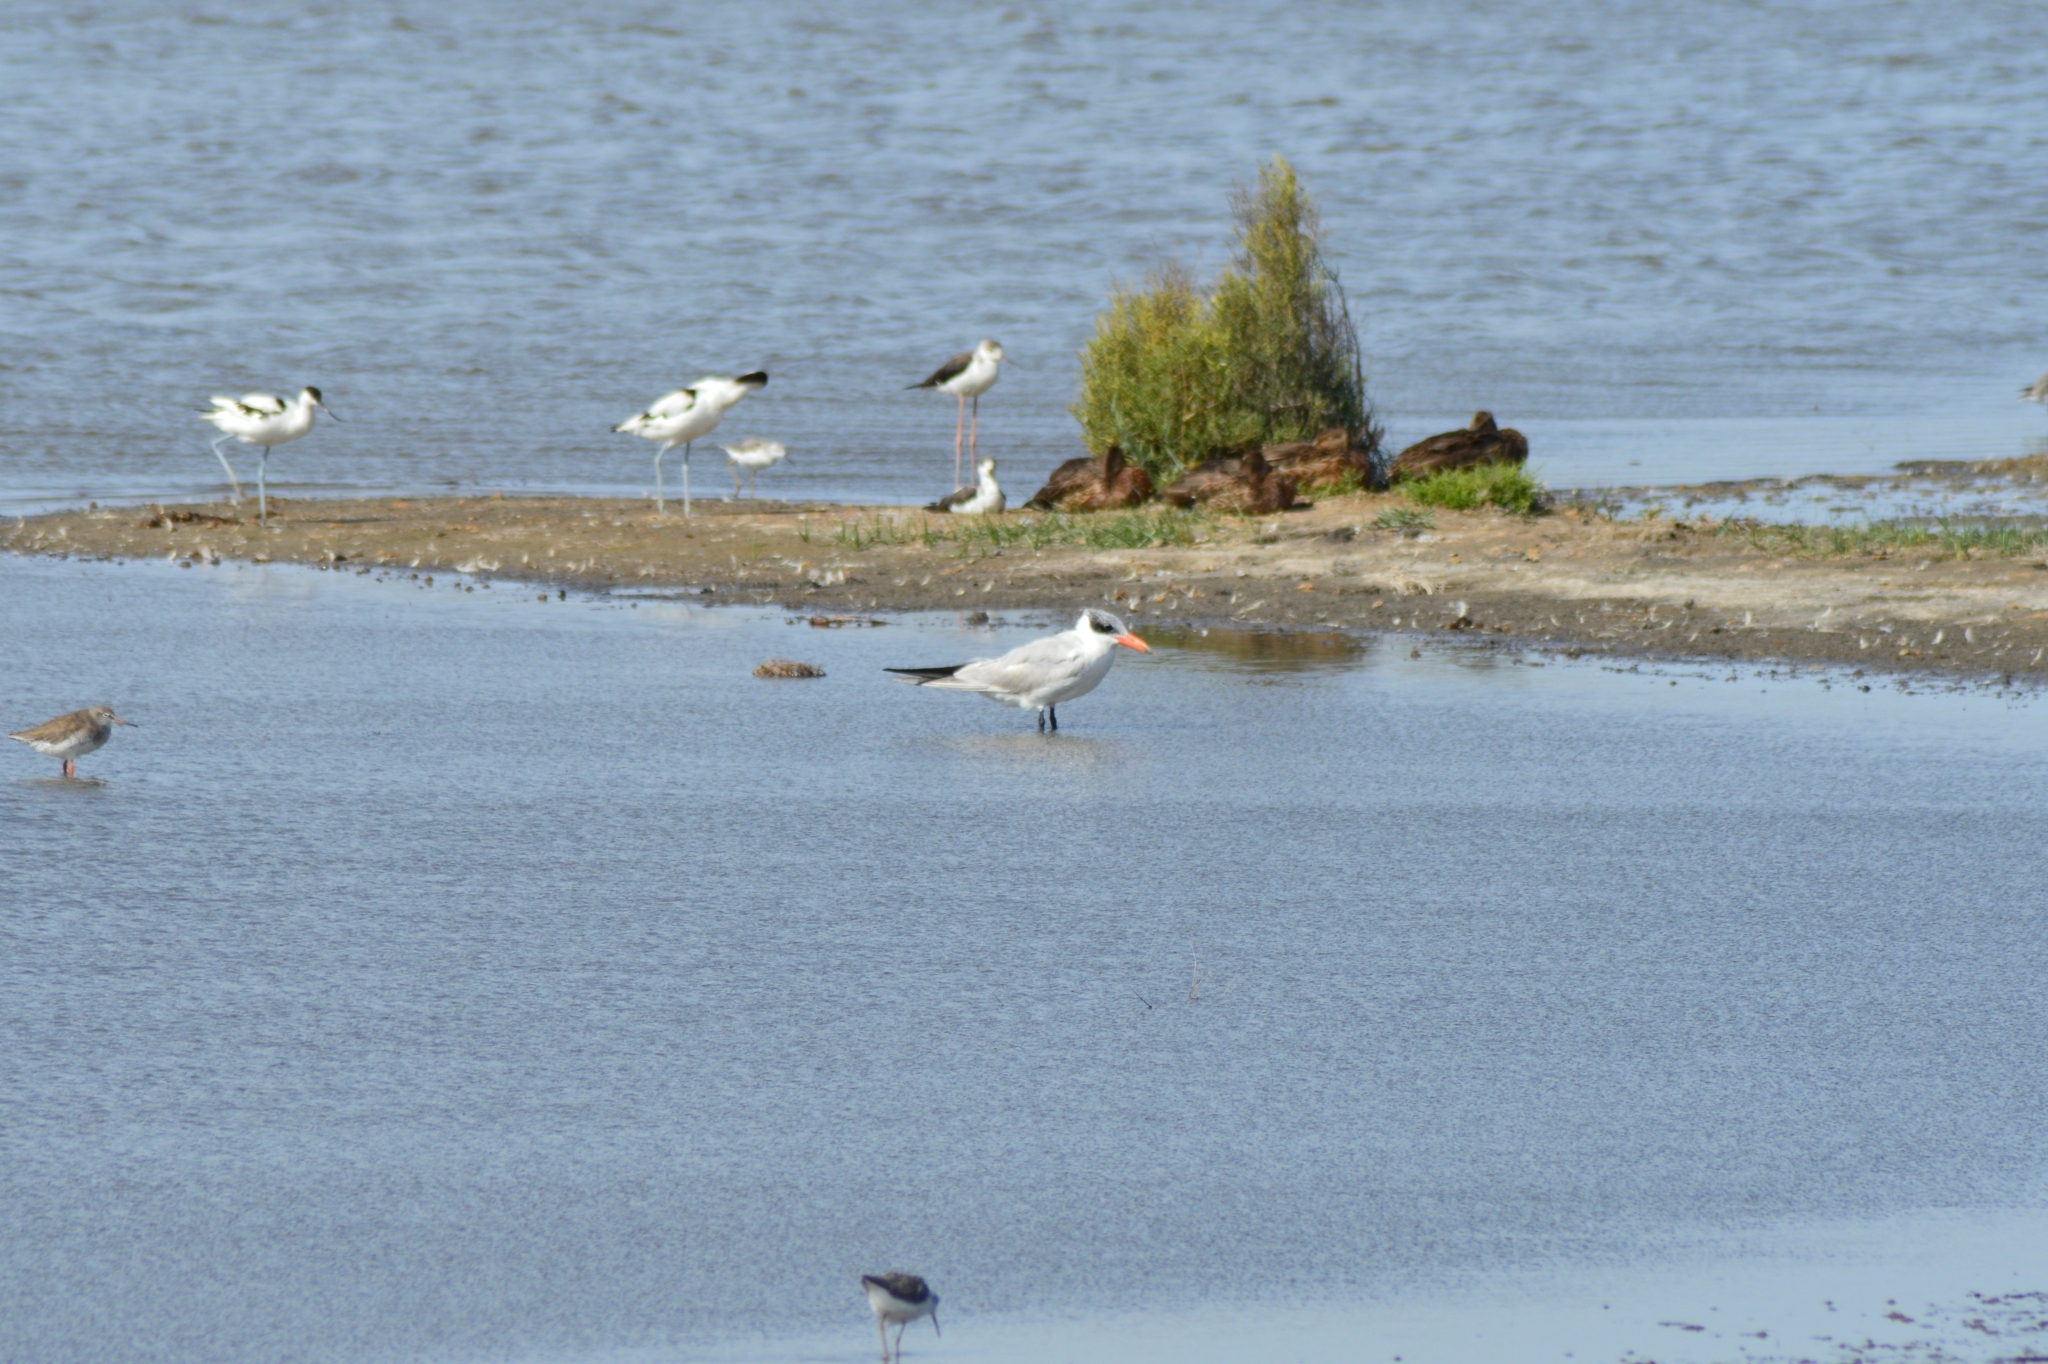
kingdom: Animalia
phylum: Chordata
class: Aves
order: Charadriiformes
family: Laridae
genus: Hydroprogne
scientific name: Hydroprogne caspia
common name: Caspian tern
